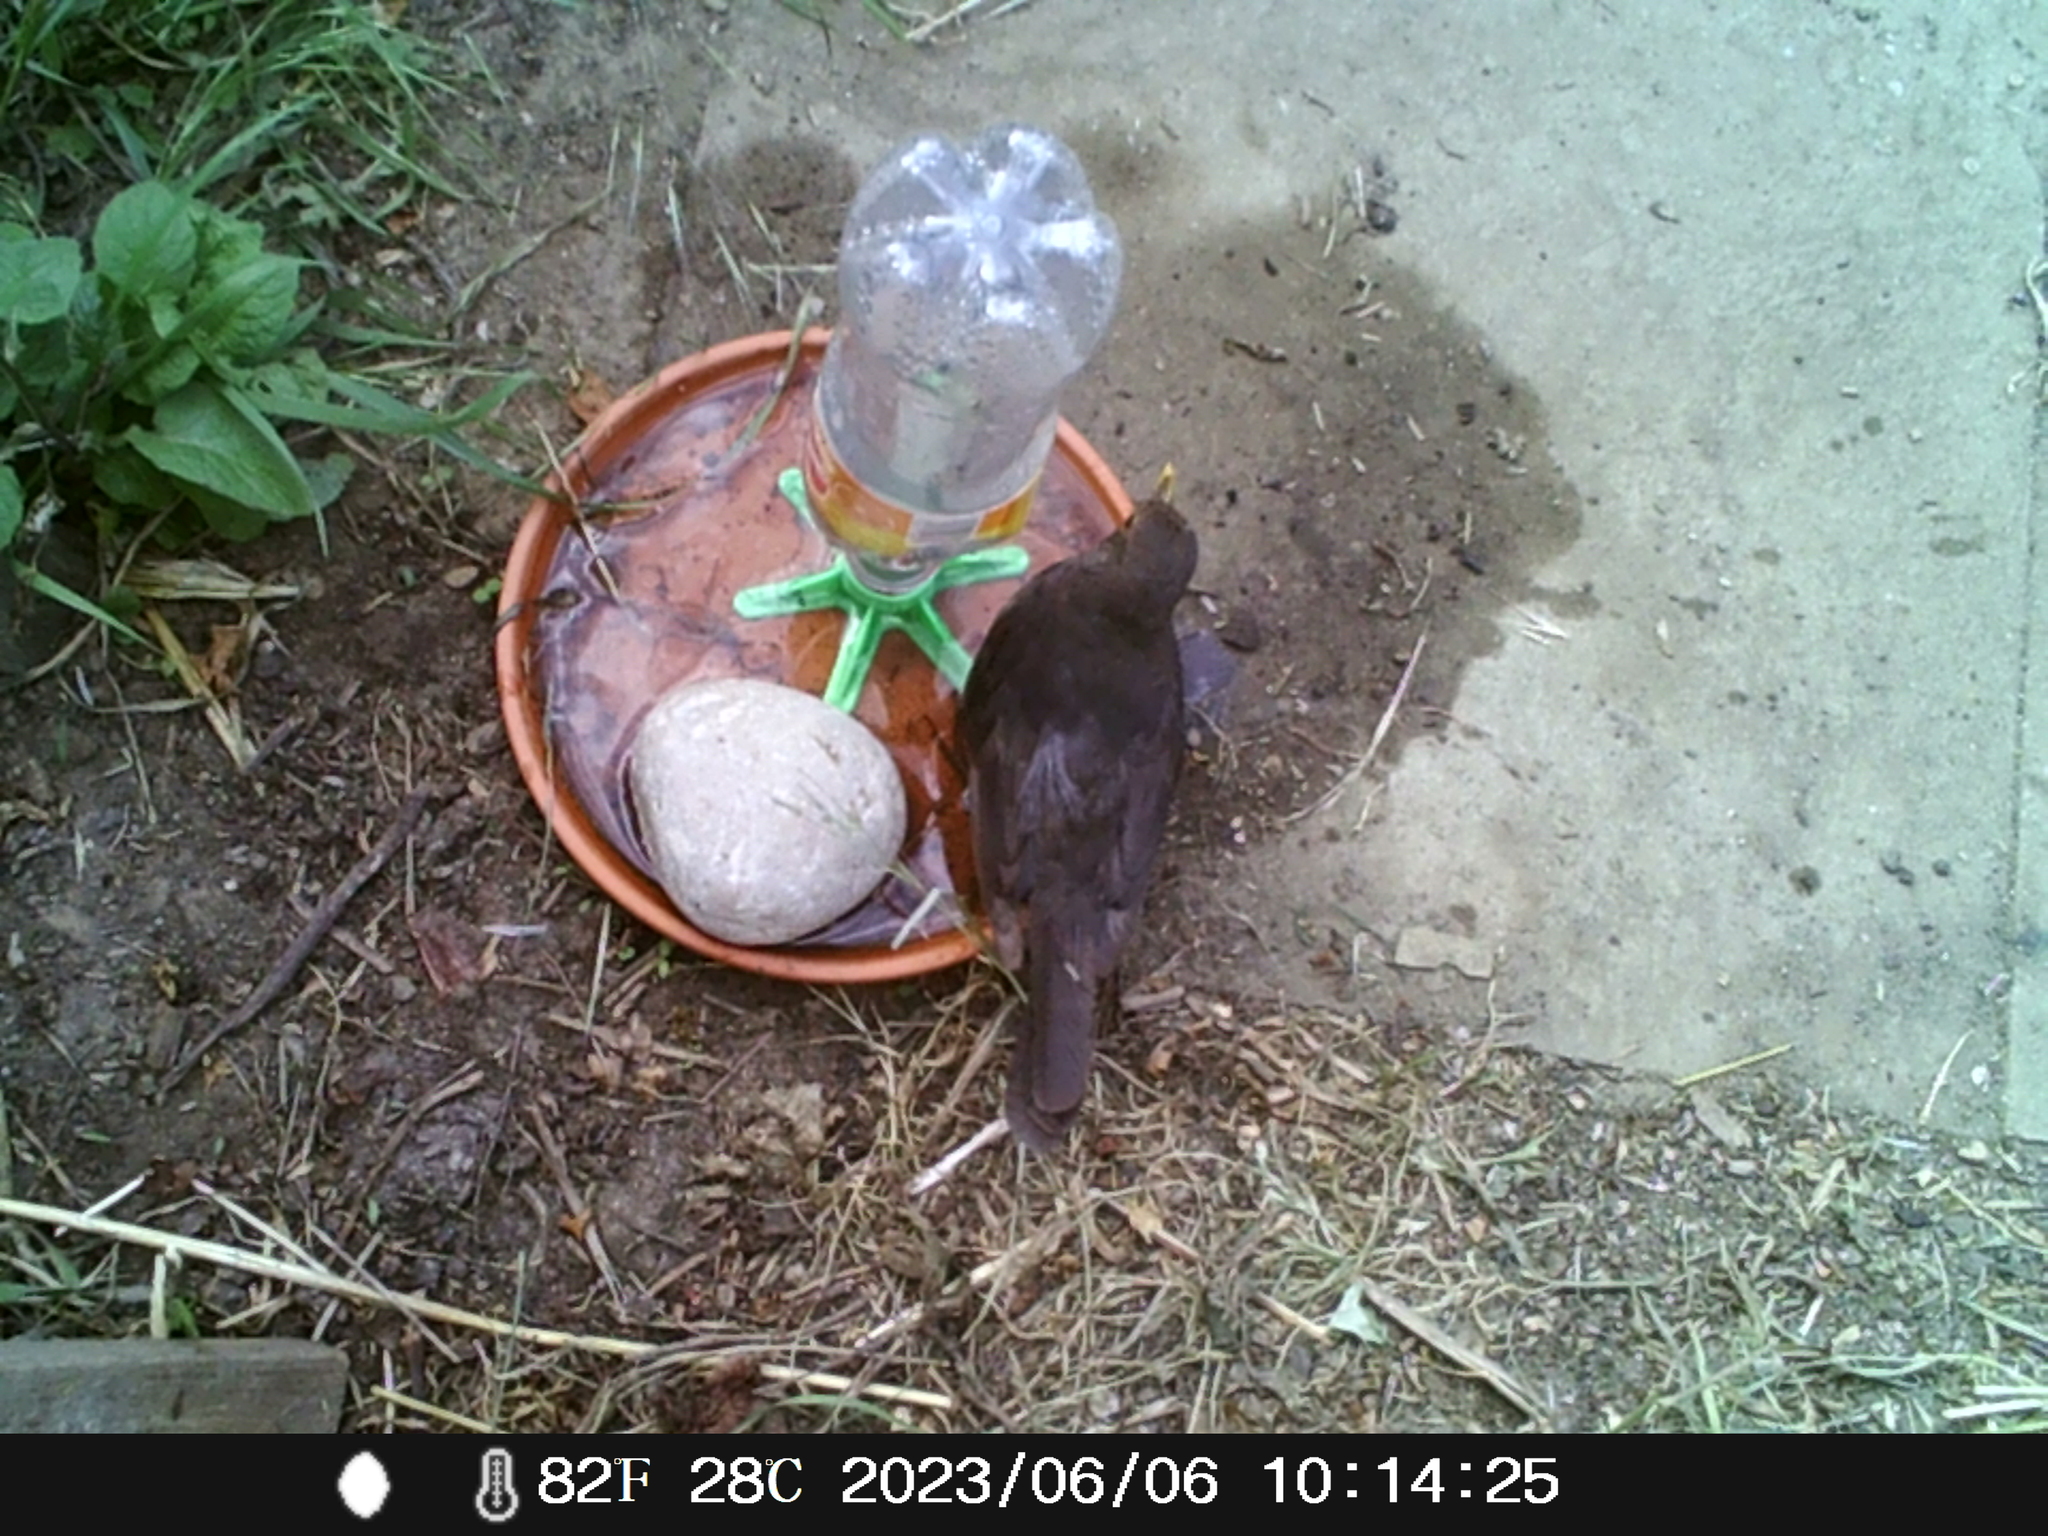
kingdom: Animalia
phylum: Chordata
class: Aves
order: Passeriformes
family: Turdidae
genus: Turdus
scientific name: Turdus merula
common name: Common blackbird
